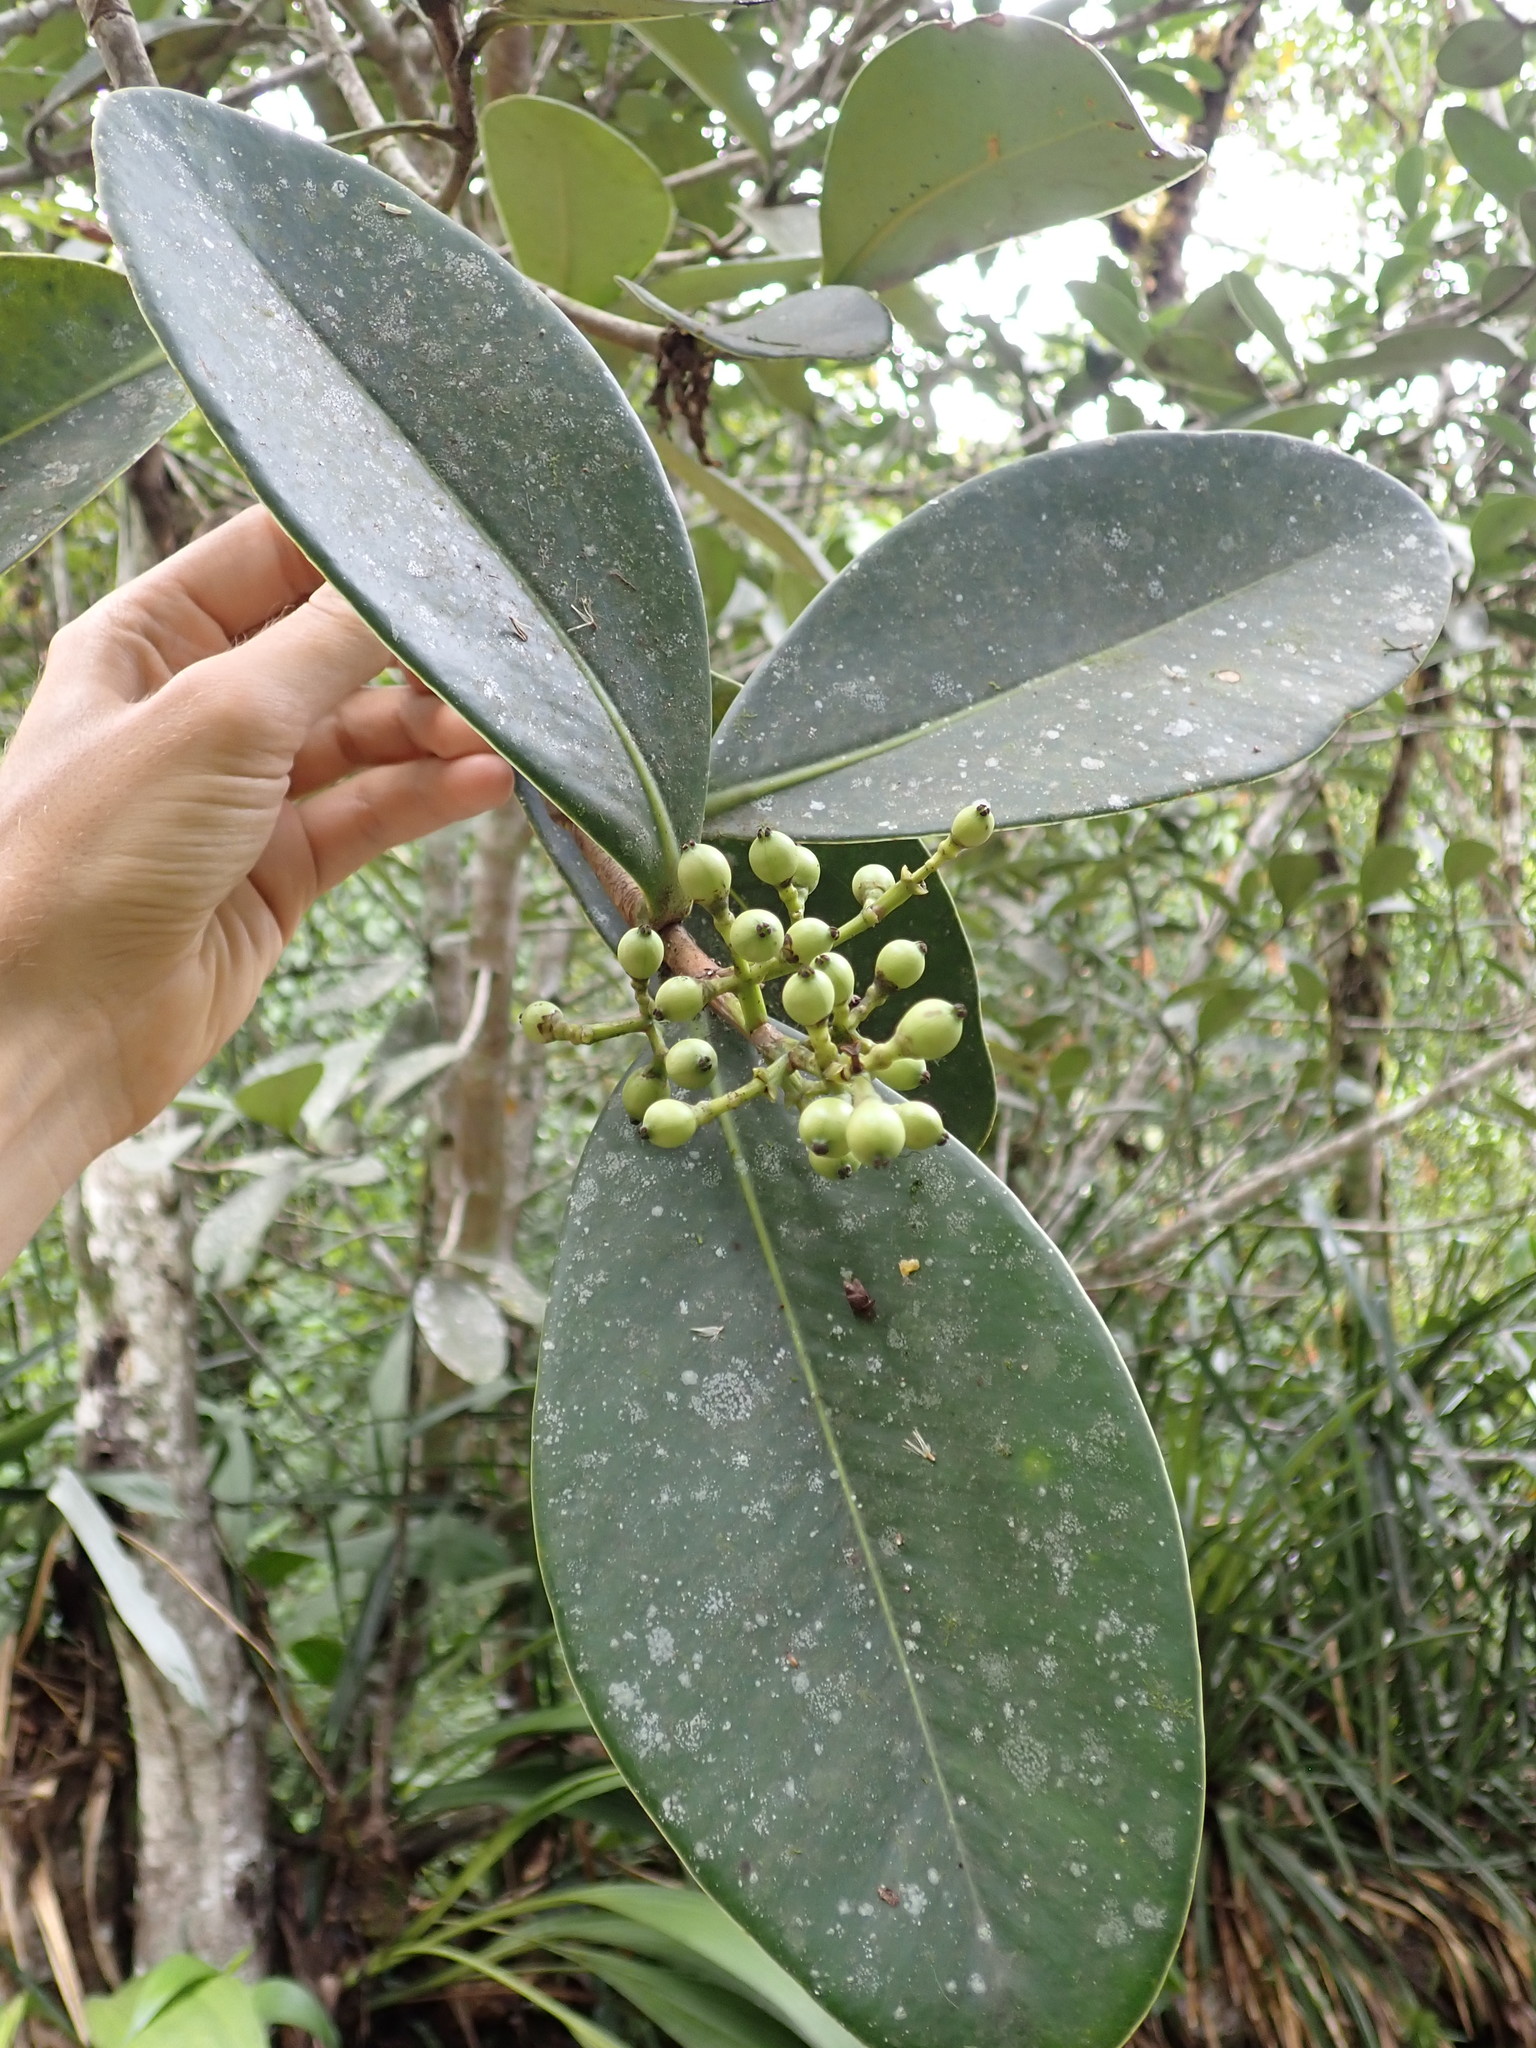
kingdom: Plantae
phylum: Tracheophyta
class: Magnoliopsida
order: Malpighiales
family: Clusiaceae
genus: Clusia
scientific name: Clusia ducu
